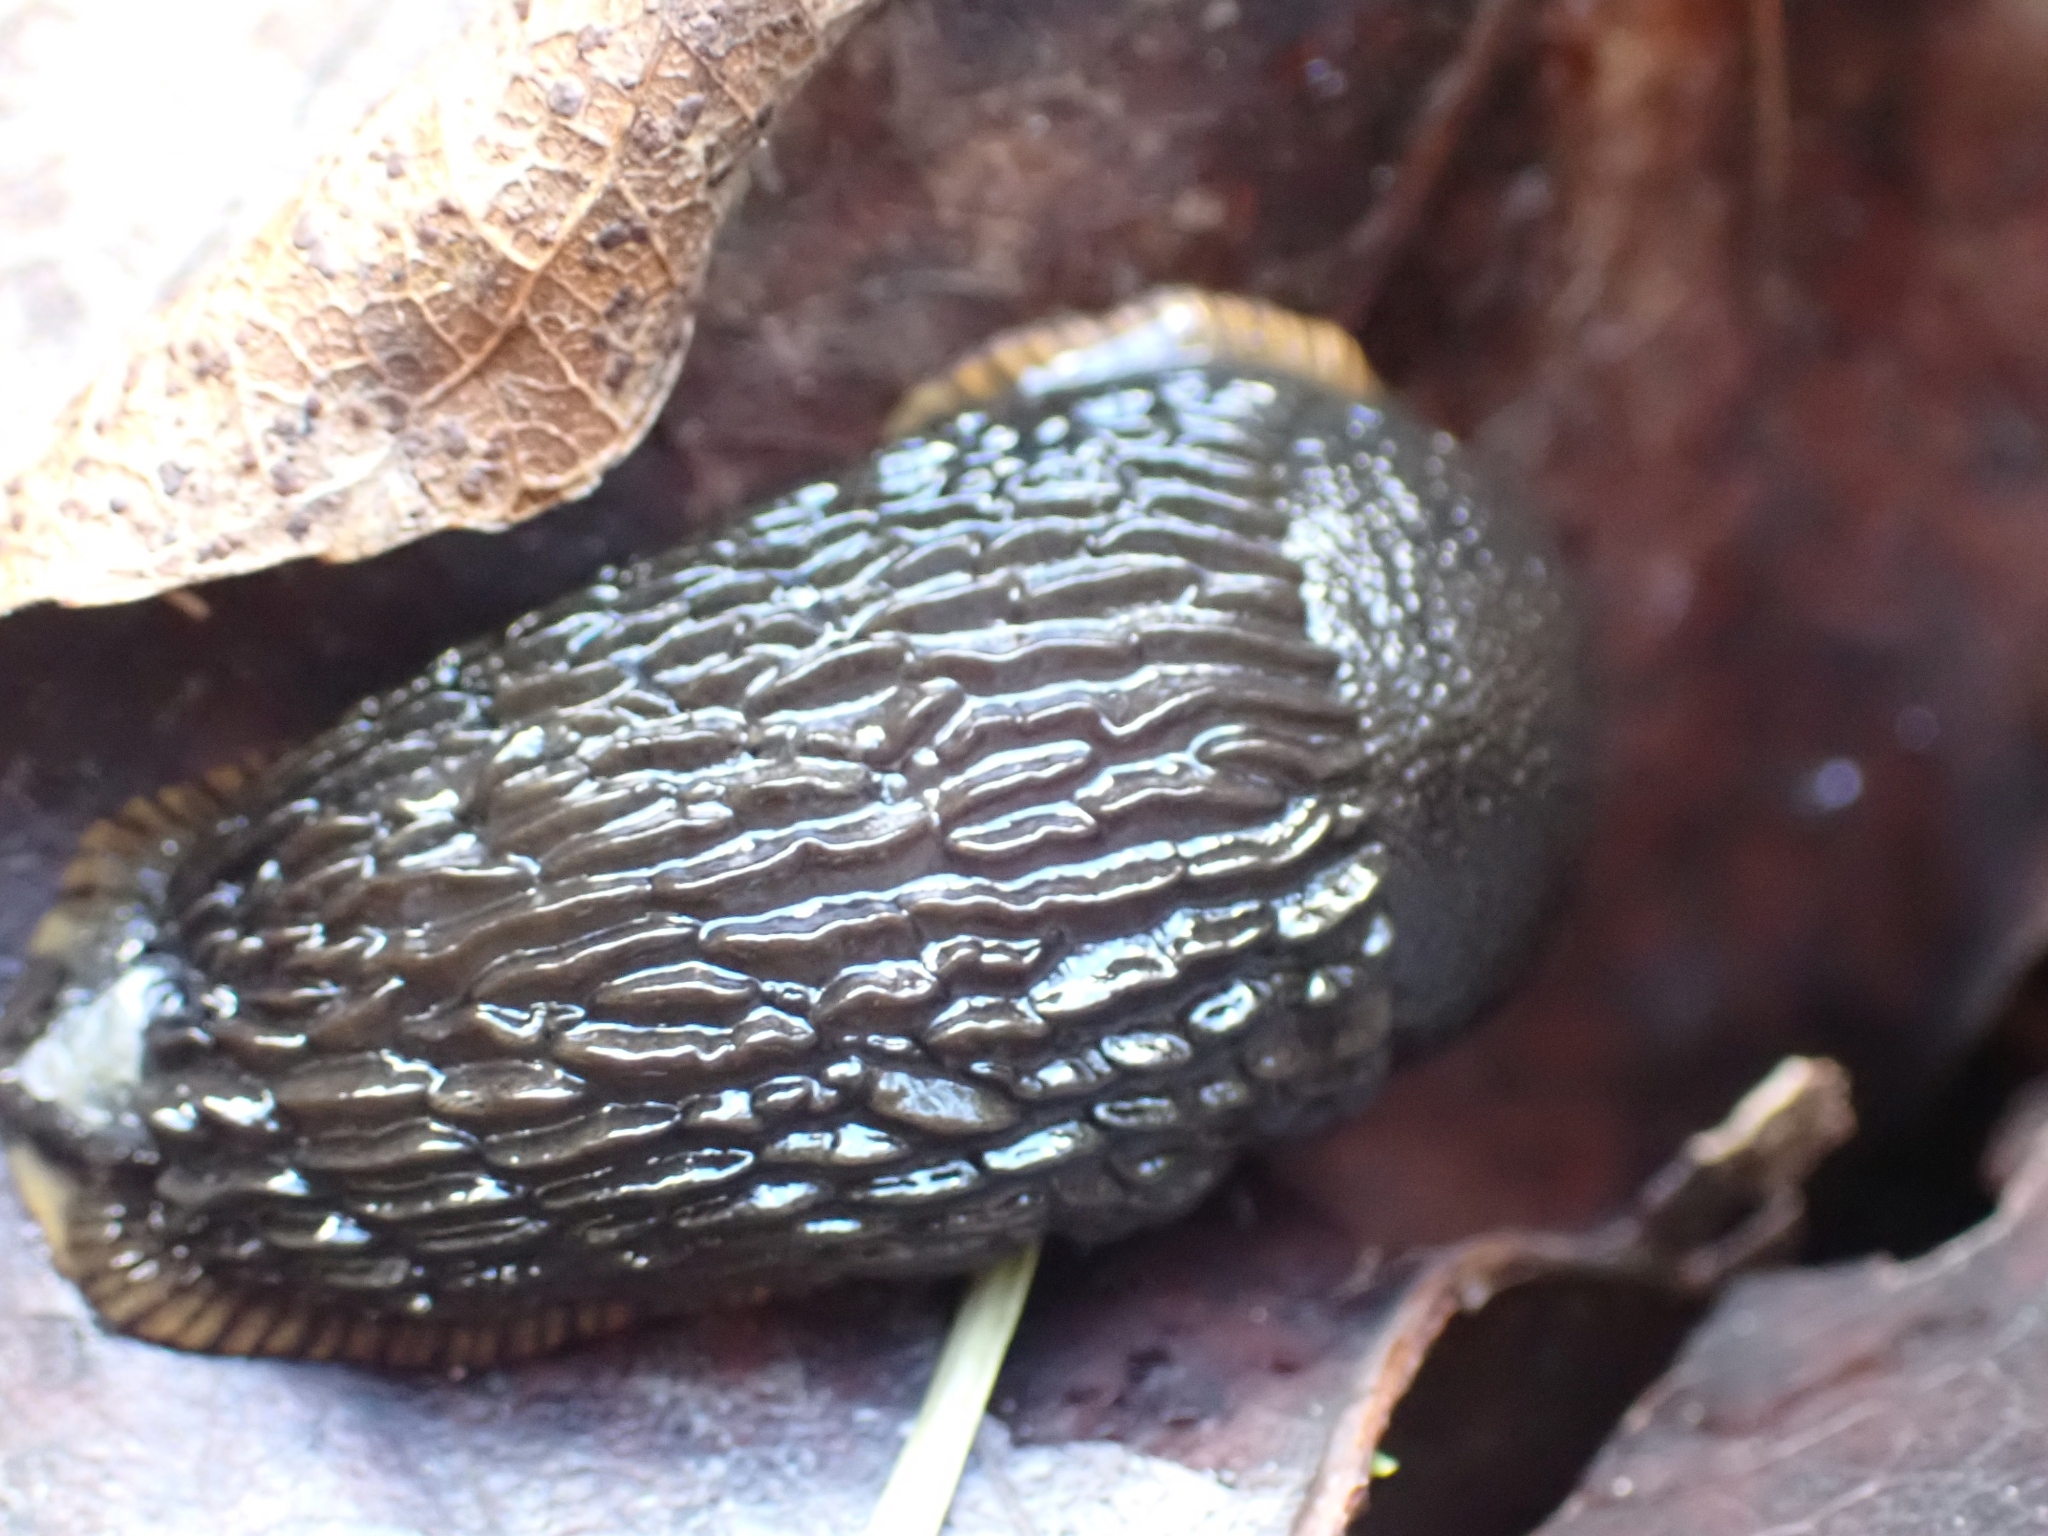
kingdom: Animalia
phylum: Mollusca
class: Gastropoda
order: Stylommatophora
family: Arionidae
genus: Arion
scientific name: Arion
